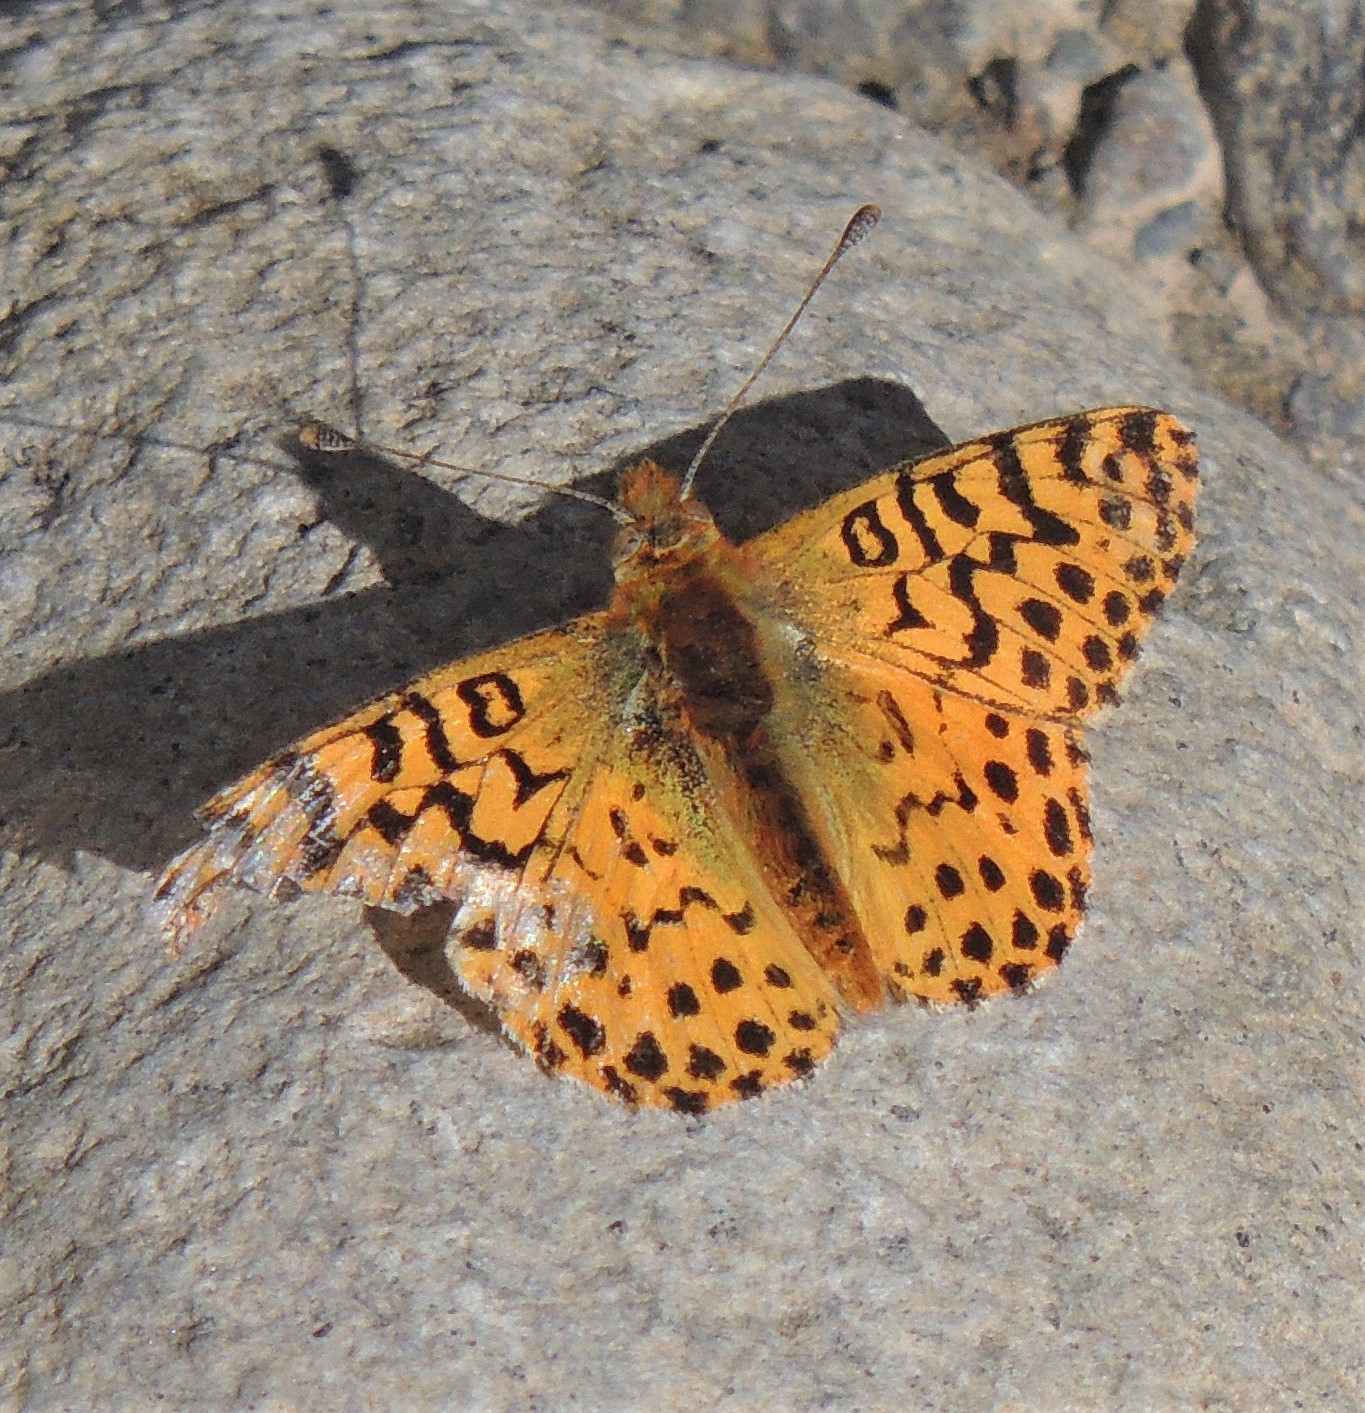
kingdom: Animalia
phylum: Arthropoda
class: Insecta
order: Lepidoptera
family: Nymphalidae
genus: Issoria
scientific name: Issoria Yramea lathonoides
